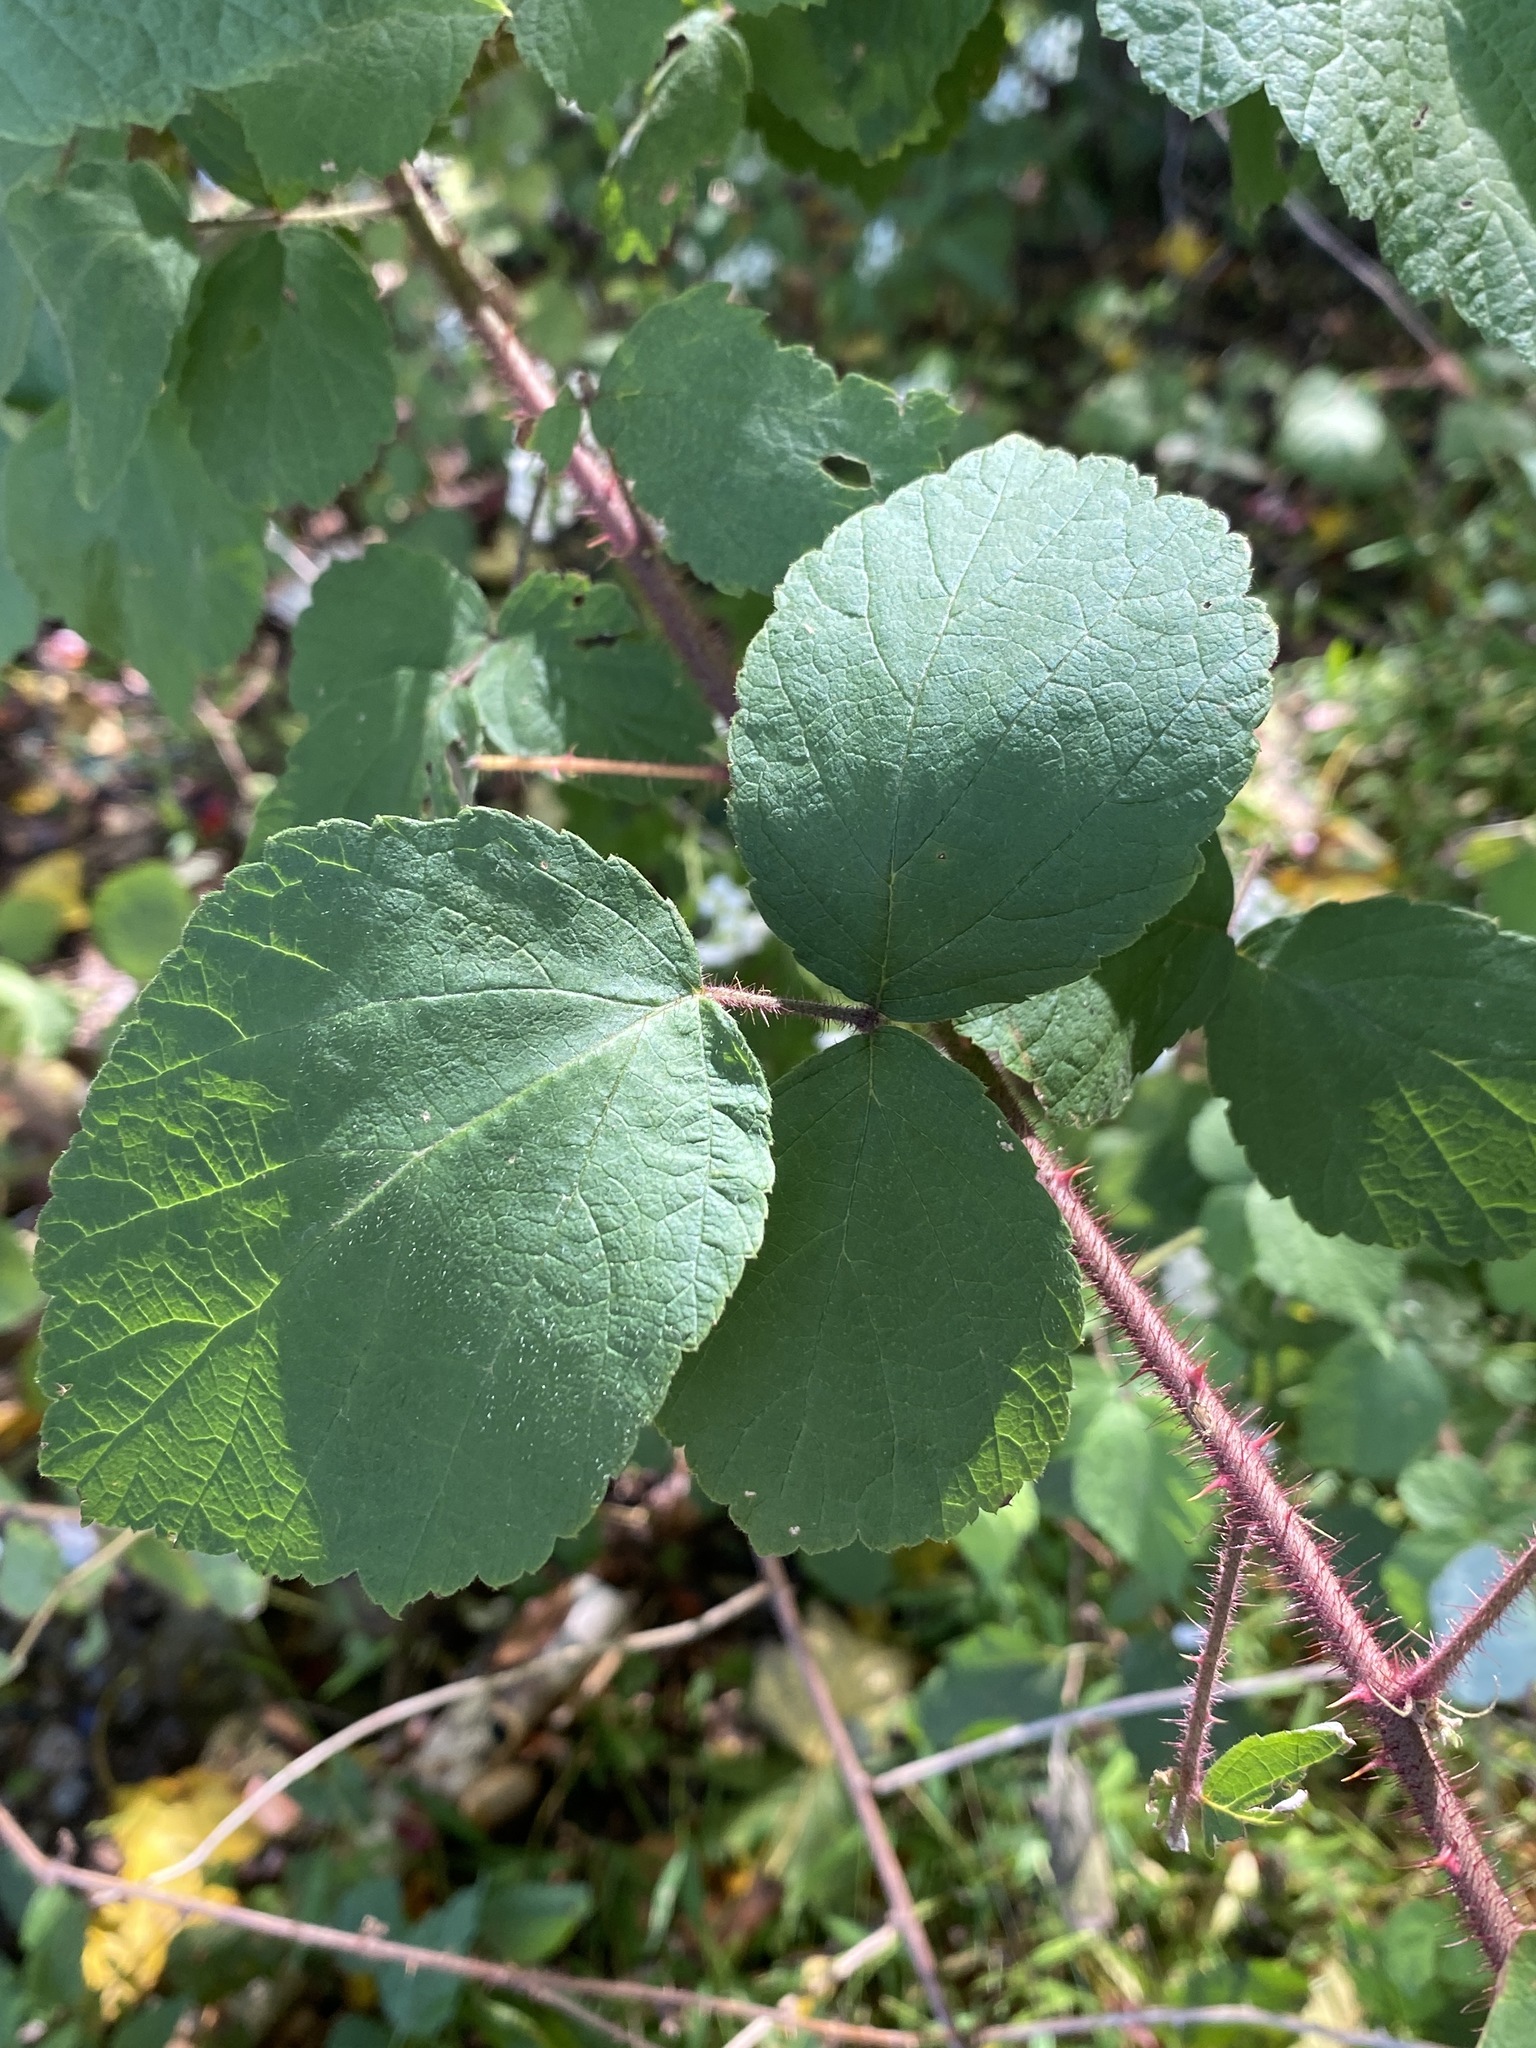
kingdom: Plantae
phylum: Tracheophyta
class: Magnoliopsida
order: Rosales
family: Rosaceae
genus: Rubus
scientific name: Rubus phoenicolasius
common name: Japanese wineberry
